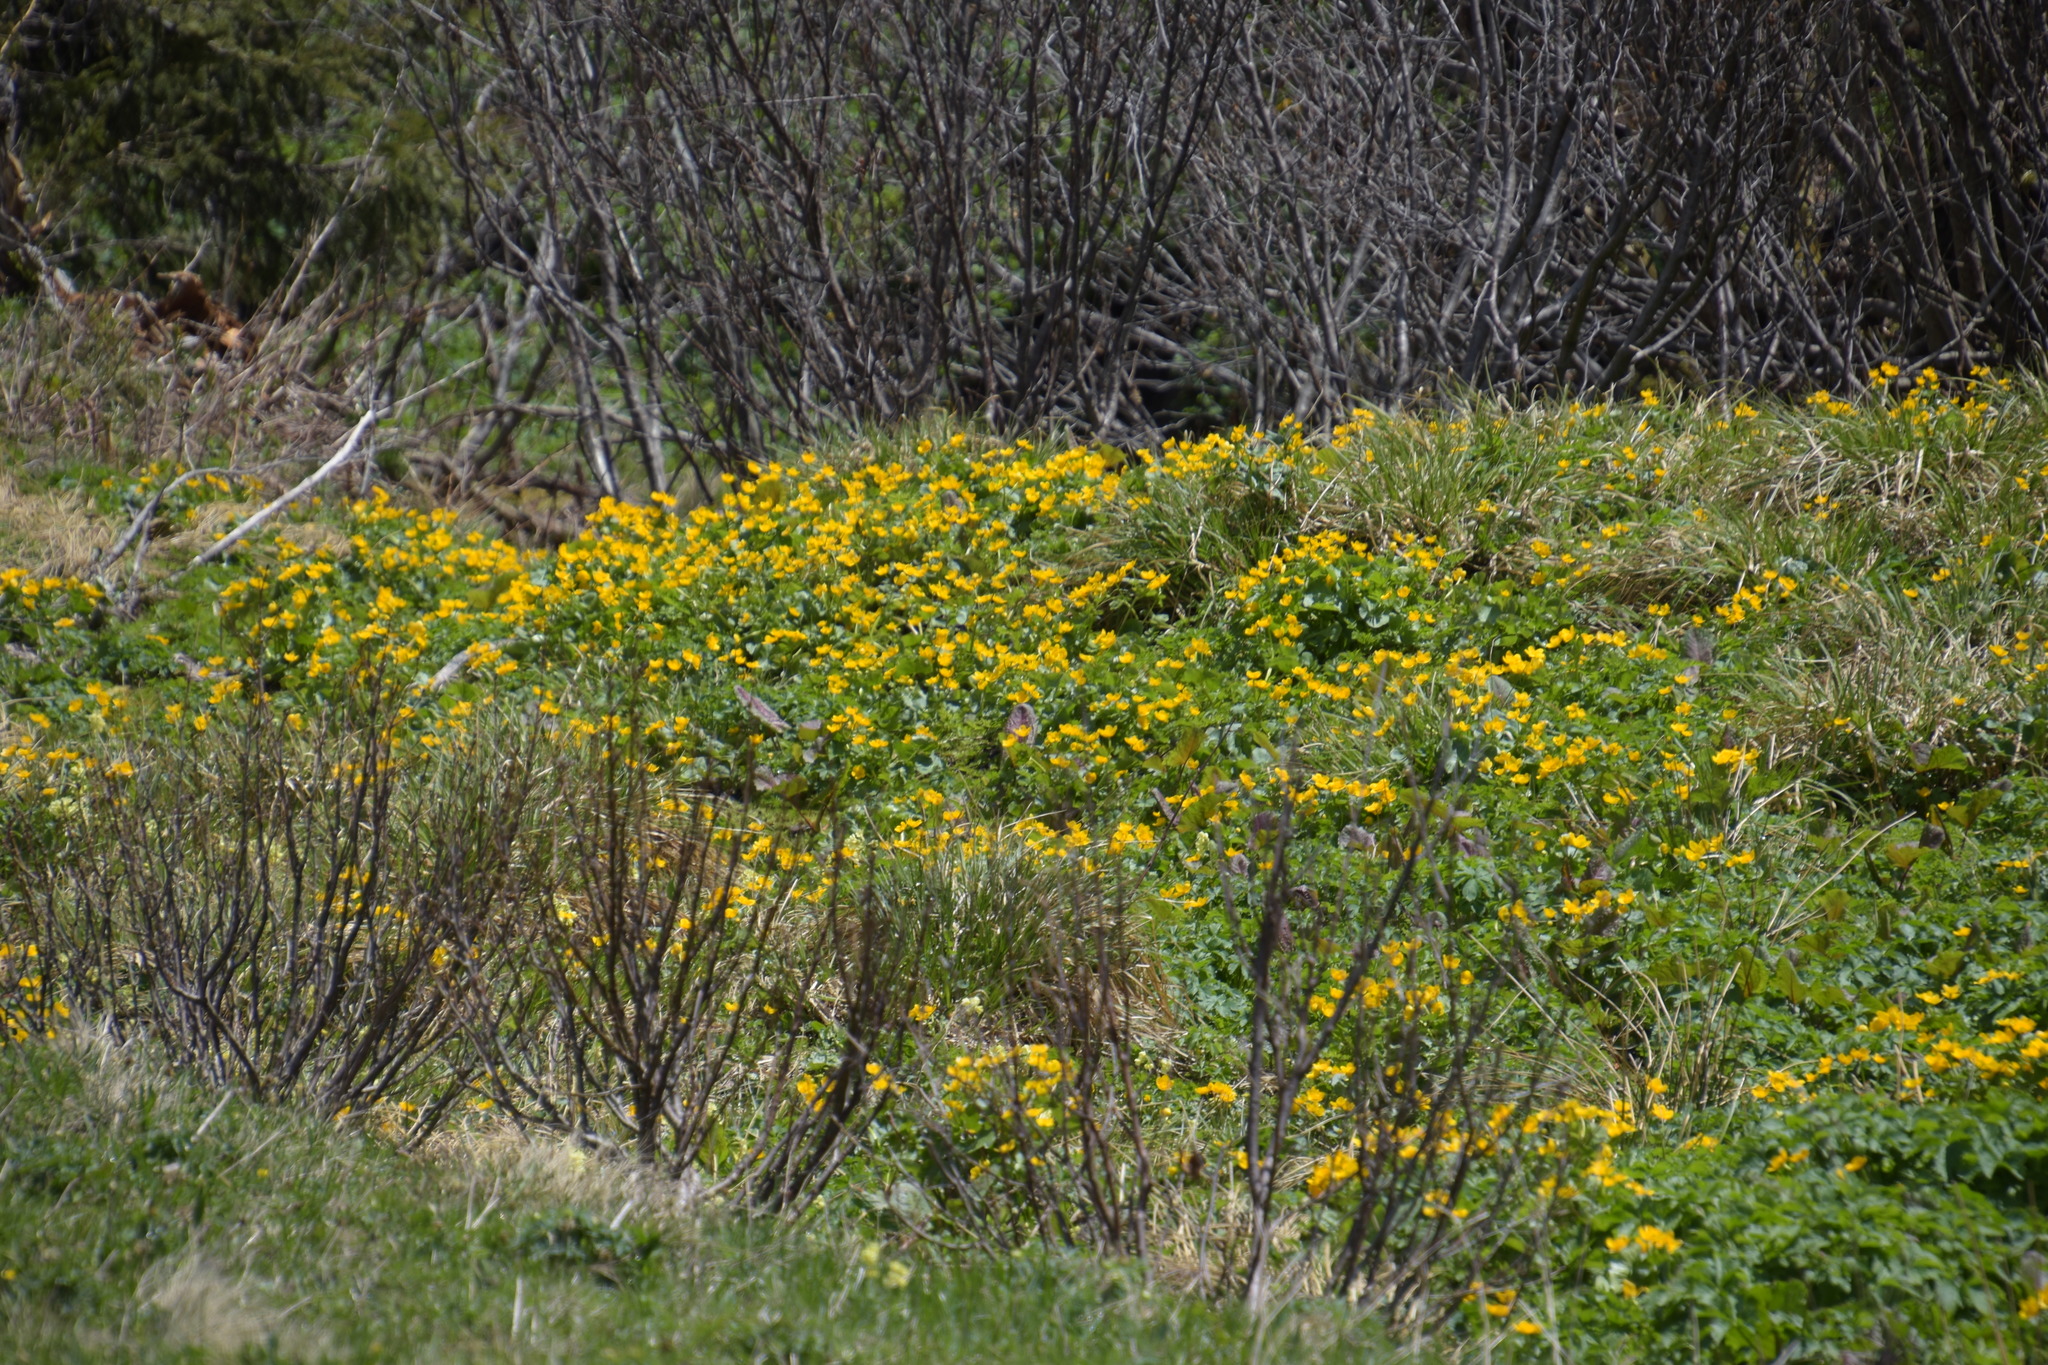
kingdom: Plantae
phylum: Tracheophyta
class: Magnoliopsida
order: Ranunculales
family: Ranunculaceae
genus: Caltha
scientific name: Caltha palustris
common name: Marsh marigold
